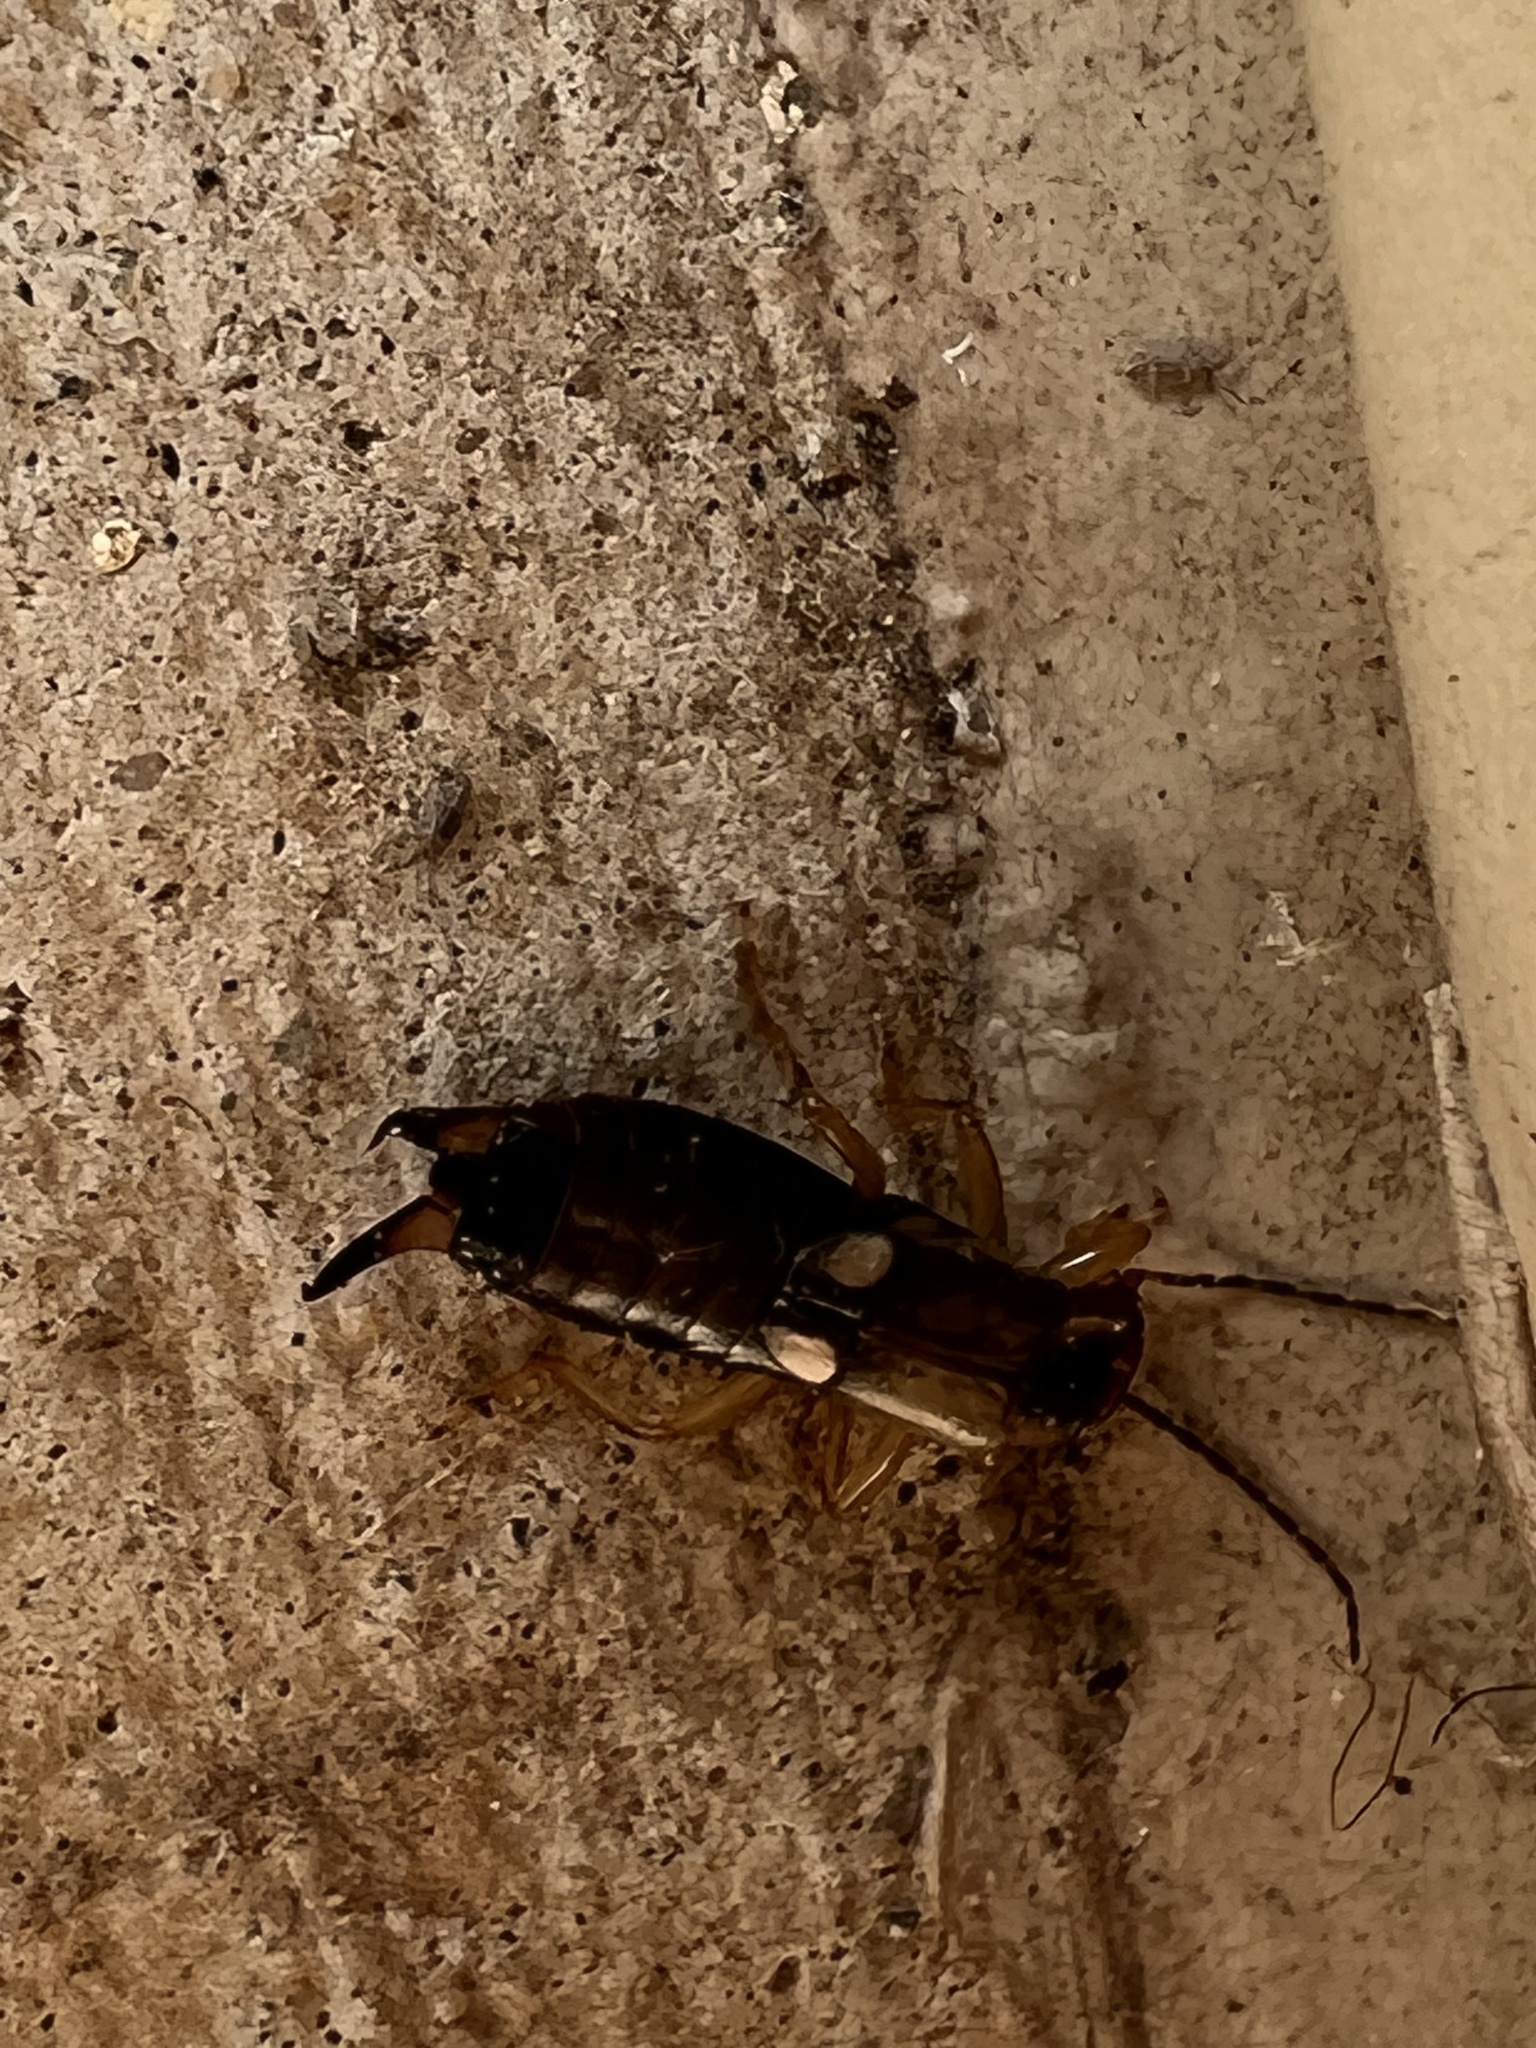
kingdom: Animalia
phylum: Arthropoda
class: Insecta
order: Dermaptera
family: Forficulidae
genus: Forficula
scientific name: Forficula
